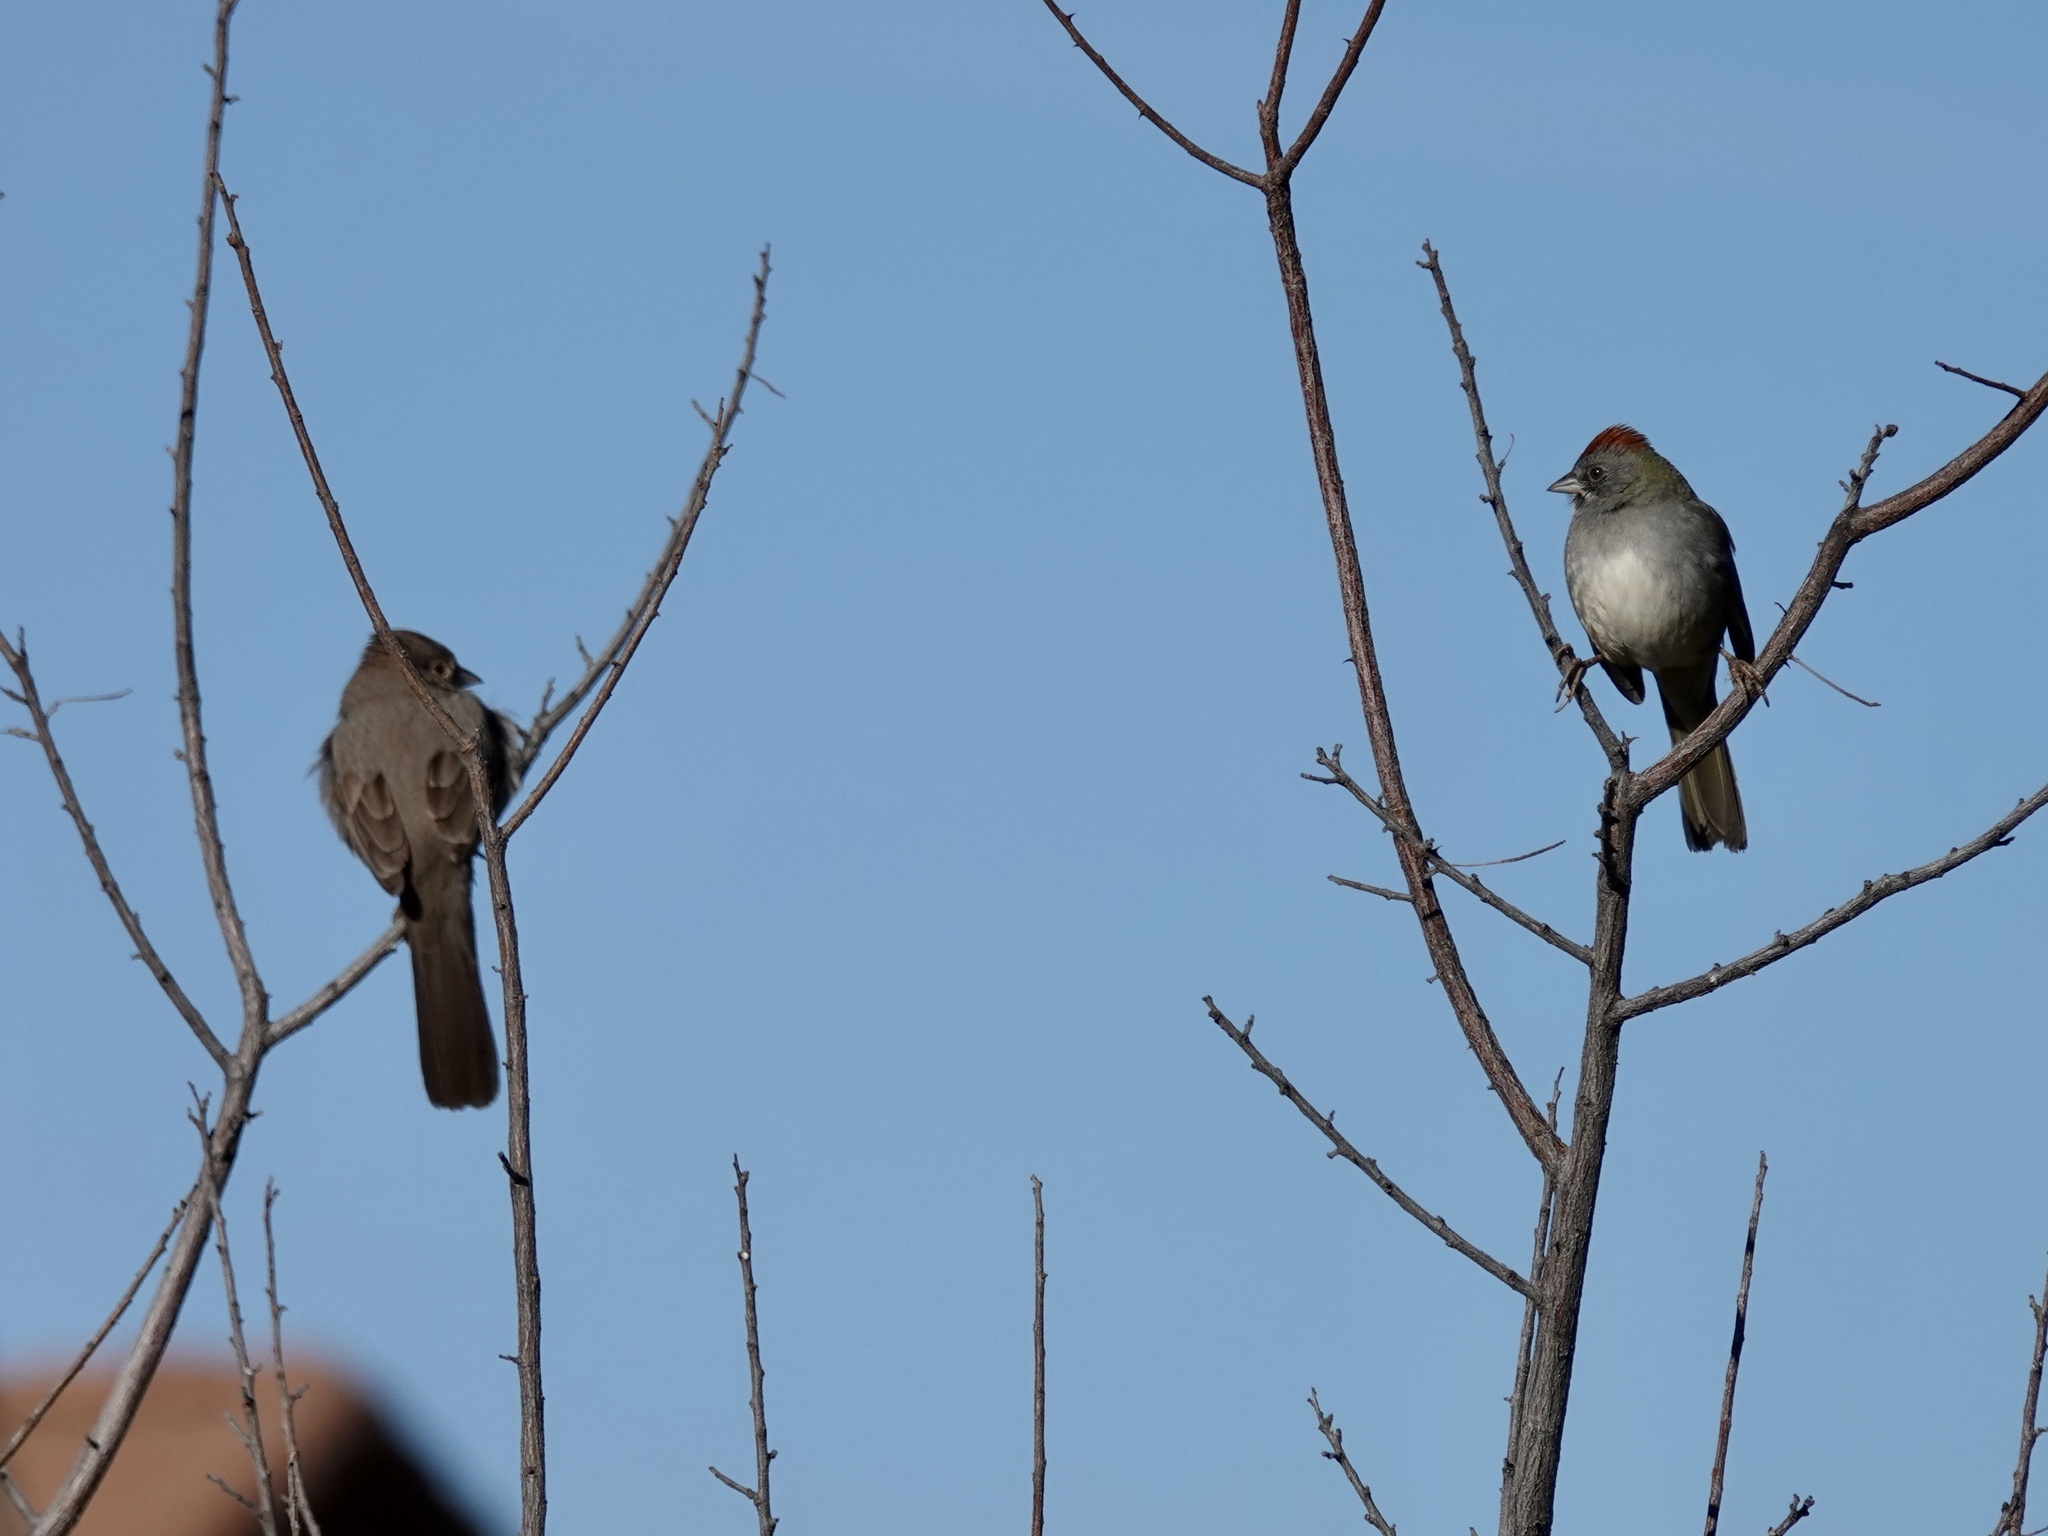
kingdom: Animalia
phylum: Chordata
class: Aves
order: Passeriformes
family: Passerellidae
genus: Pipilo
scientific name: Pipilo chlorurus
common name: Green-tailed towhee
